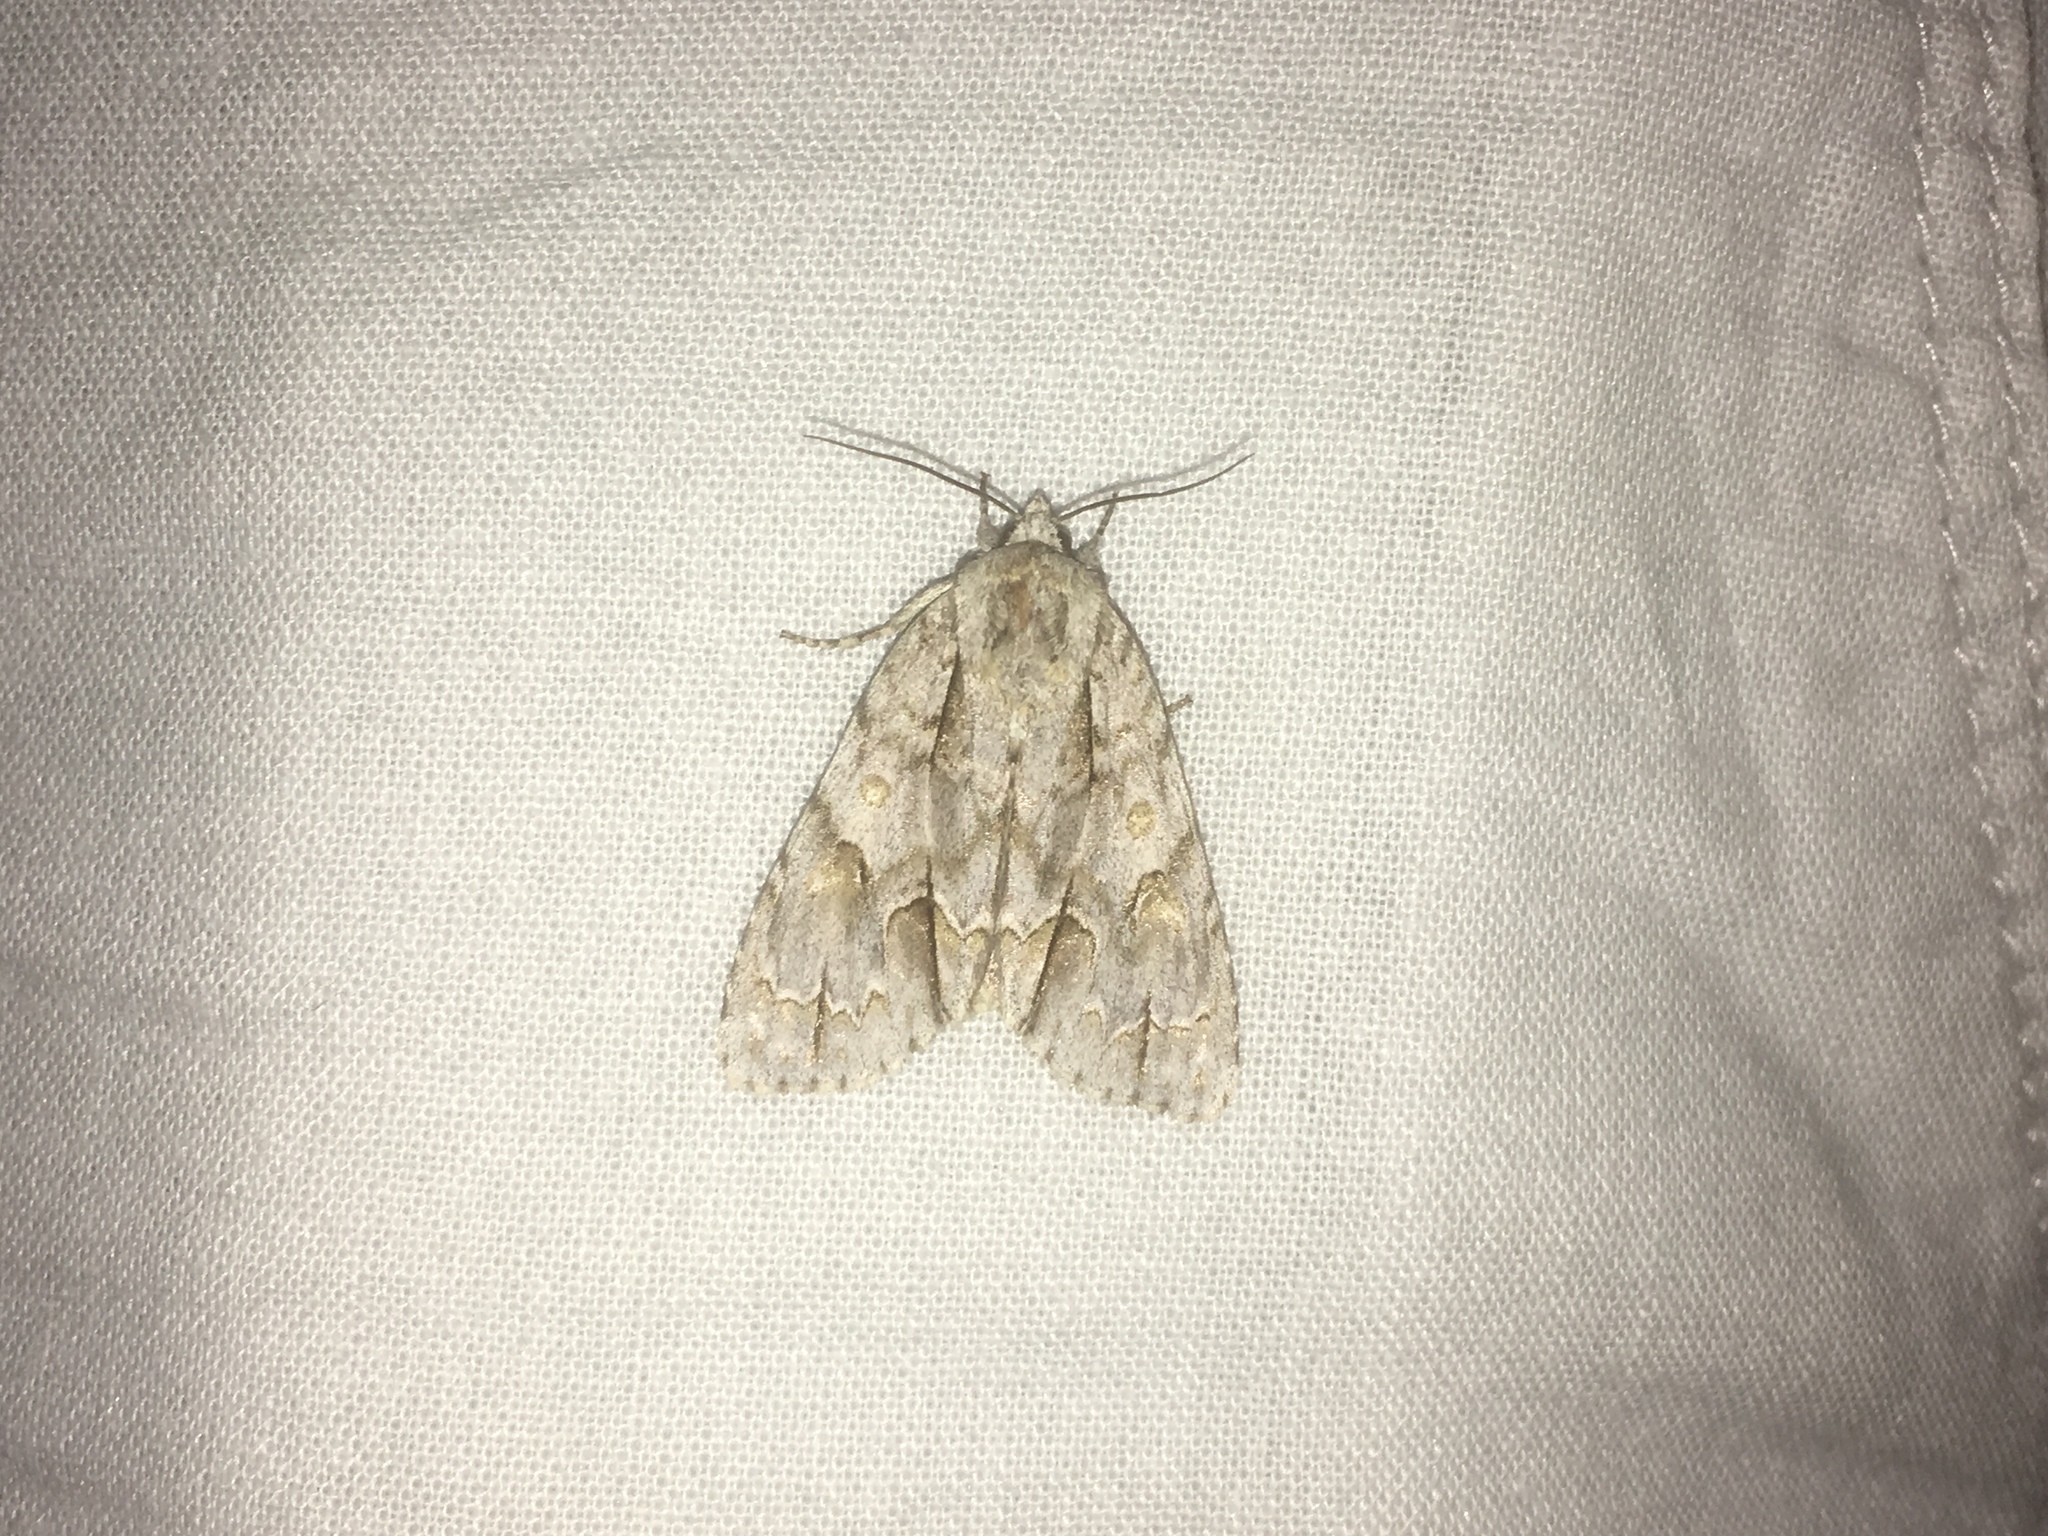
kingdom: Animalia
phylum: Arthropoda
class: Insecta
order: Lepidoptera
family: Noctuidae
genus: Acronicta
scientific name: Acronicta morula
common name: Ochre dagger
